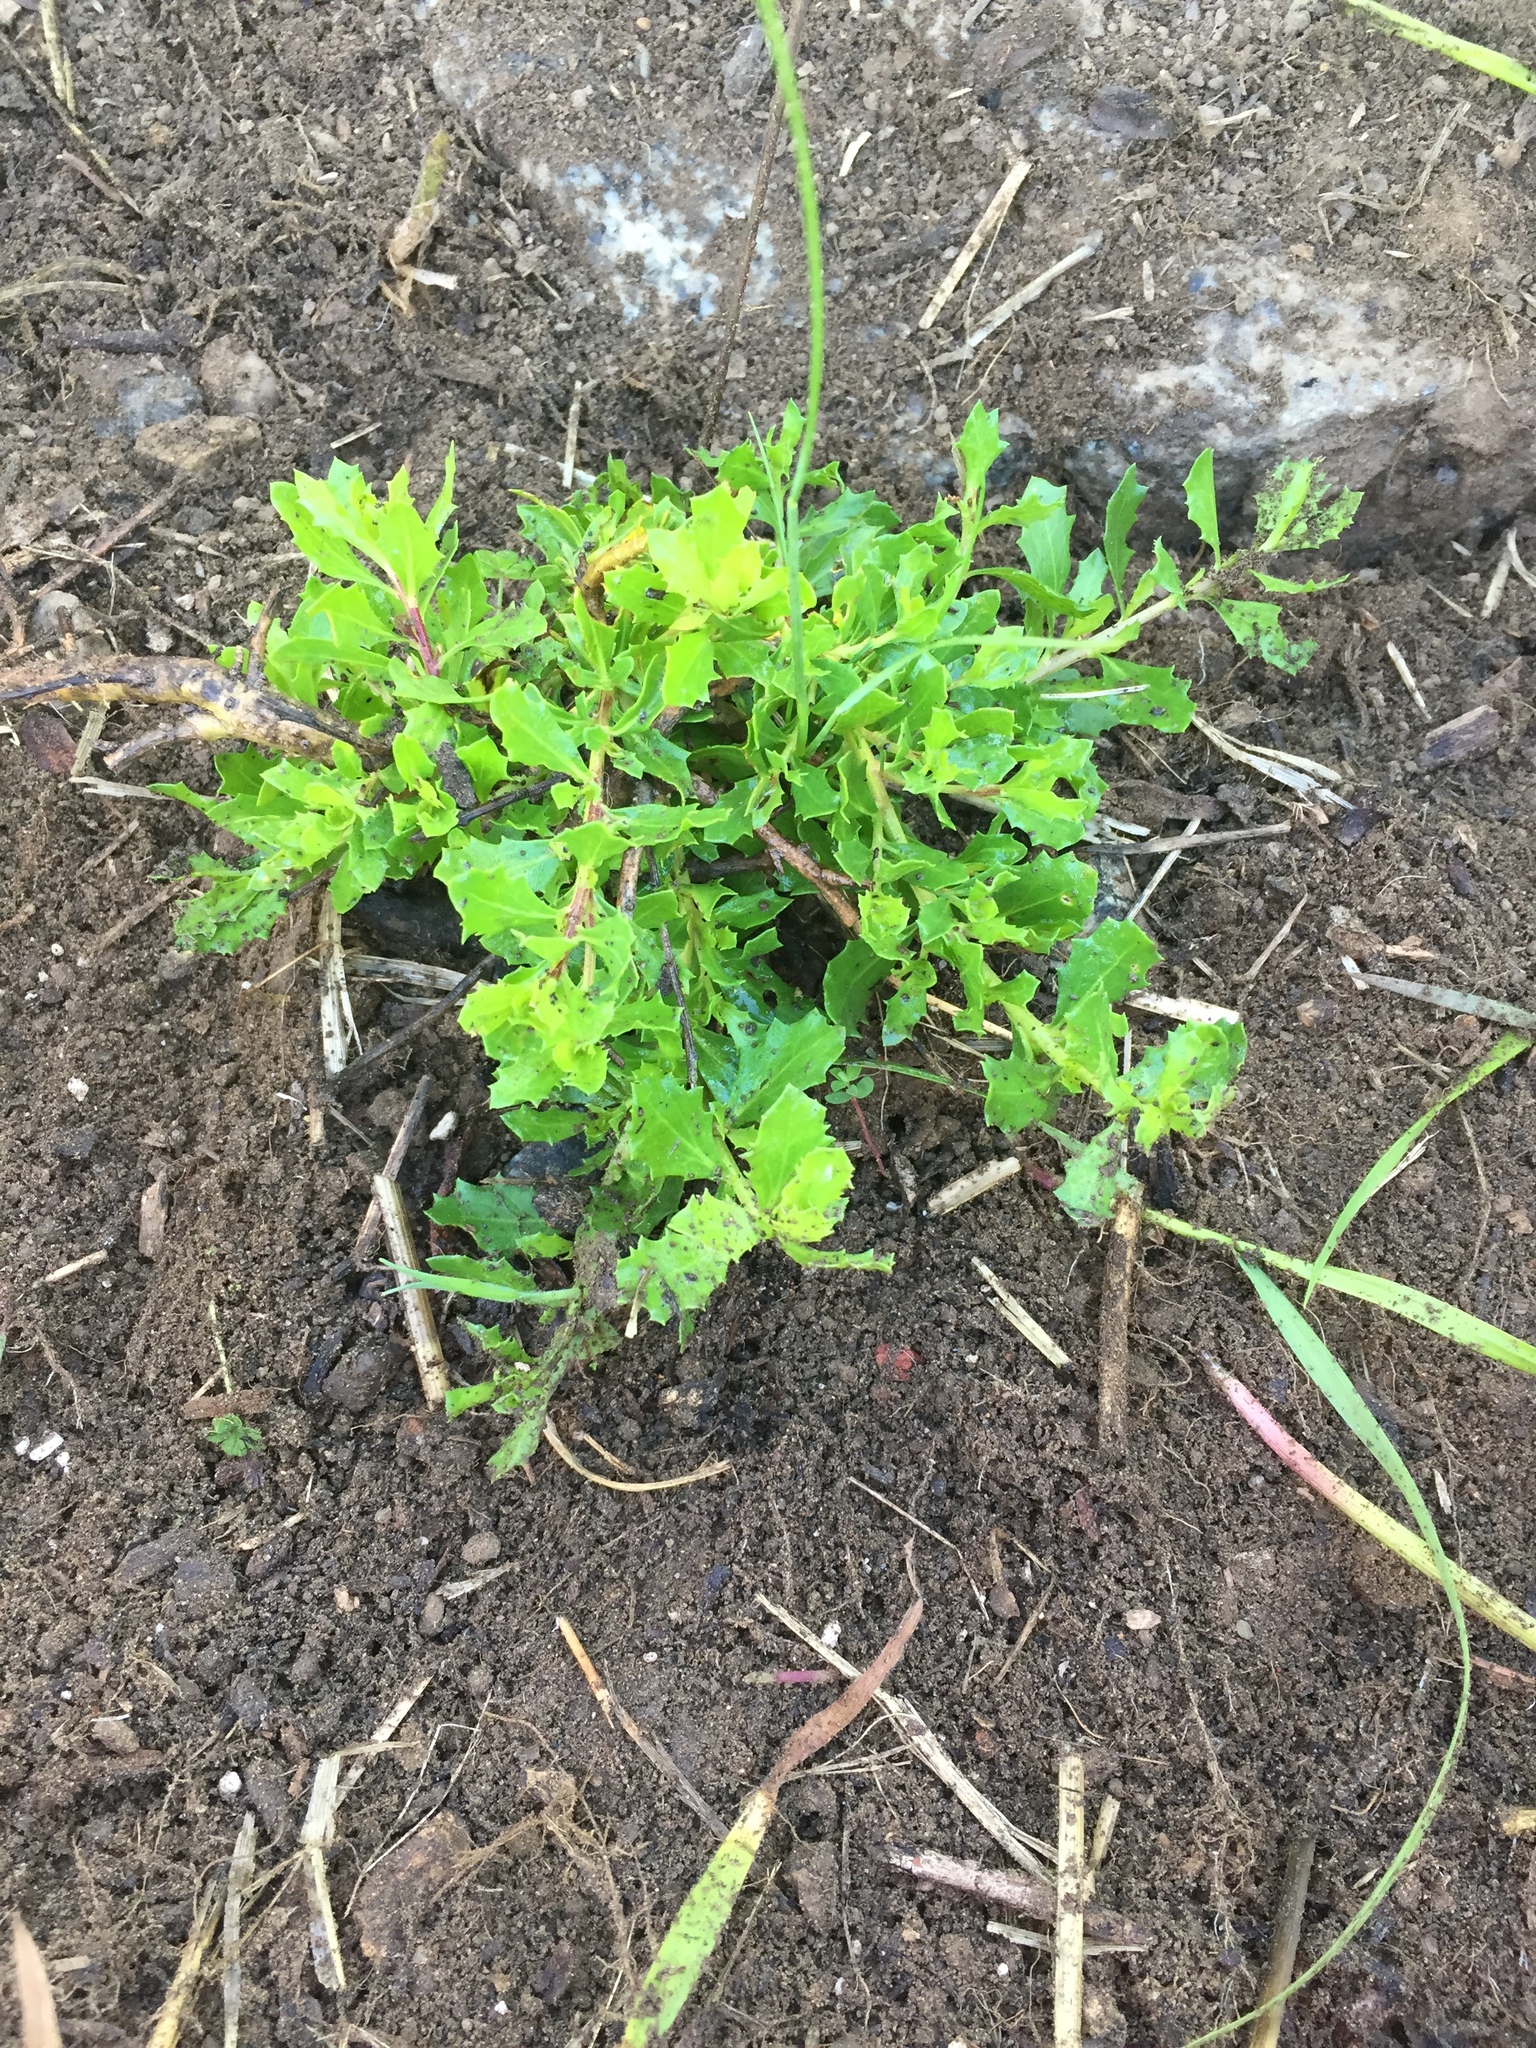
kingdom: Plantae
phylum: Tracheophyta
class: Magnoliopsida
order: Asterales
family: Asteraceae
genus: Baccharis
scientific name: Baccharis pilularis
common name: Coyotebrush
